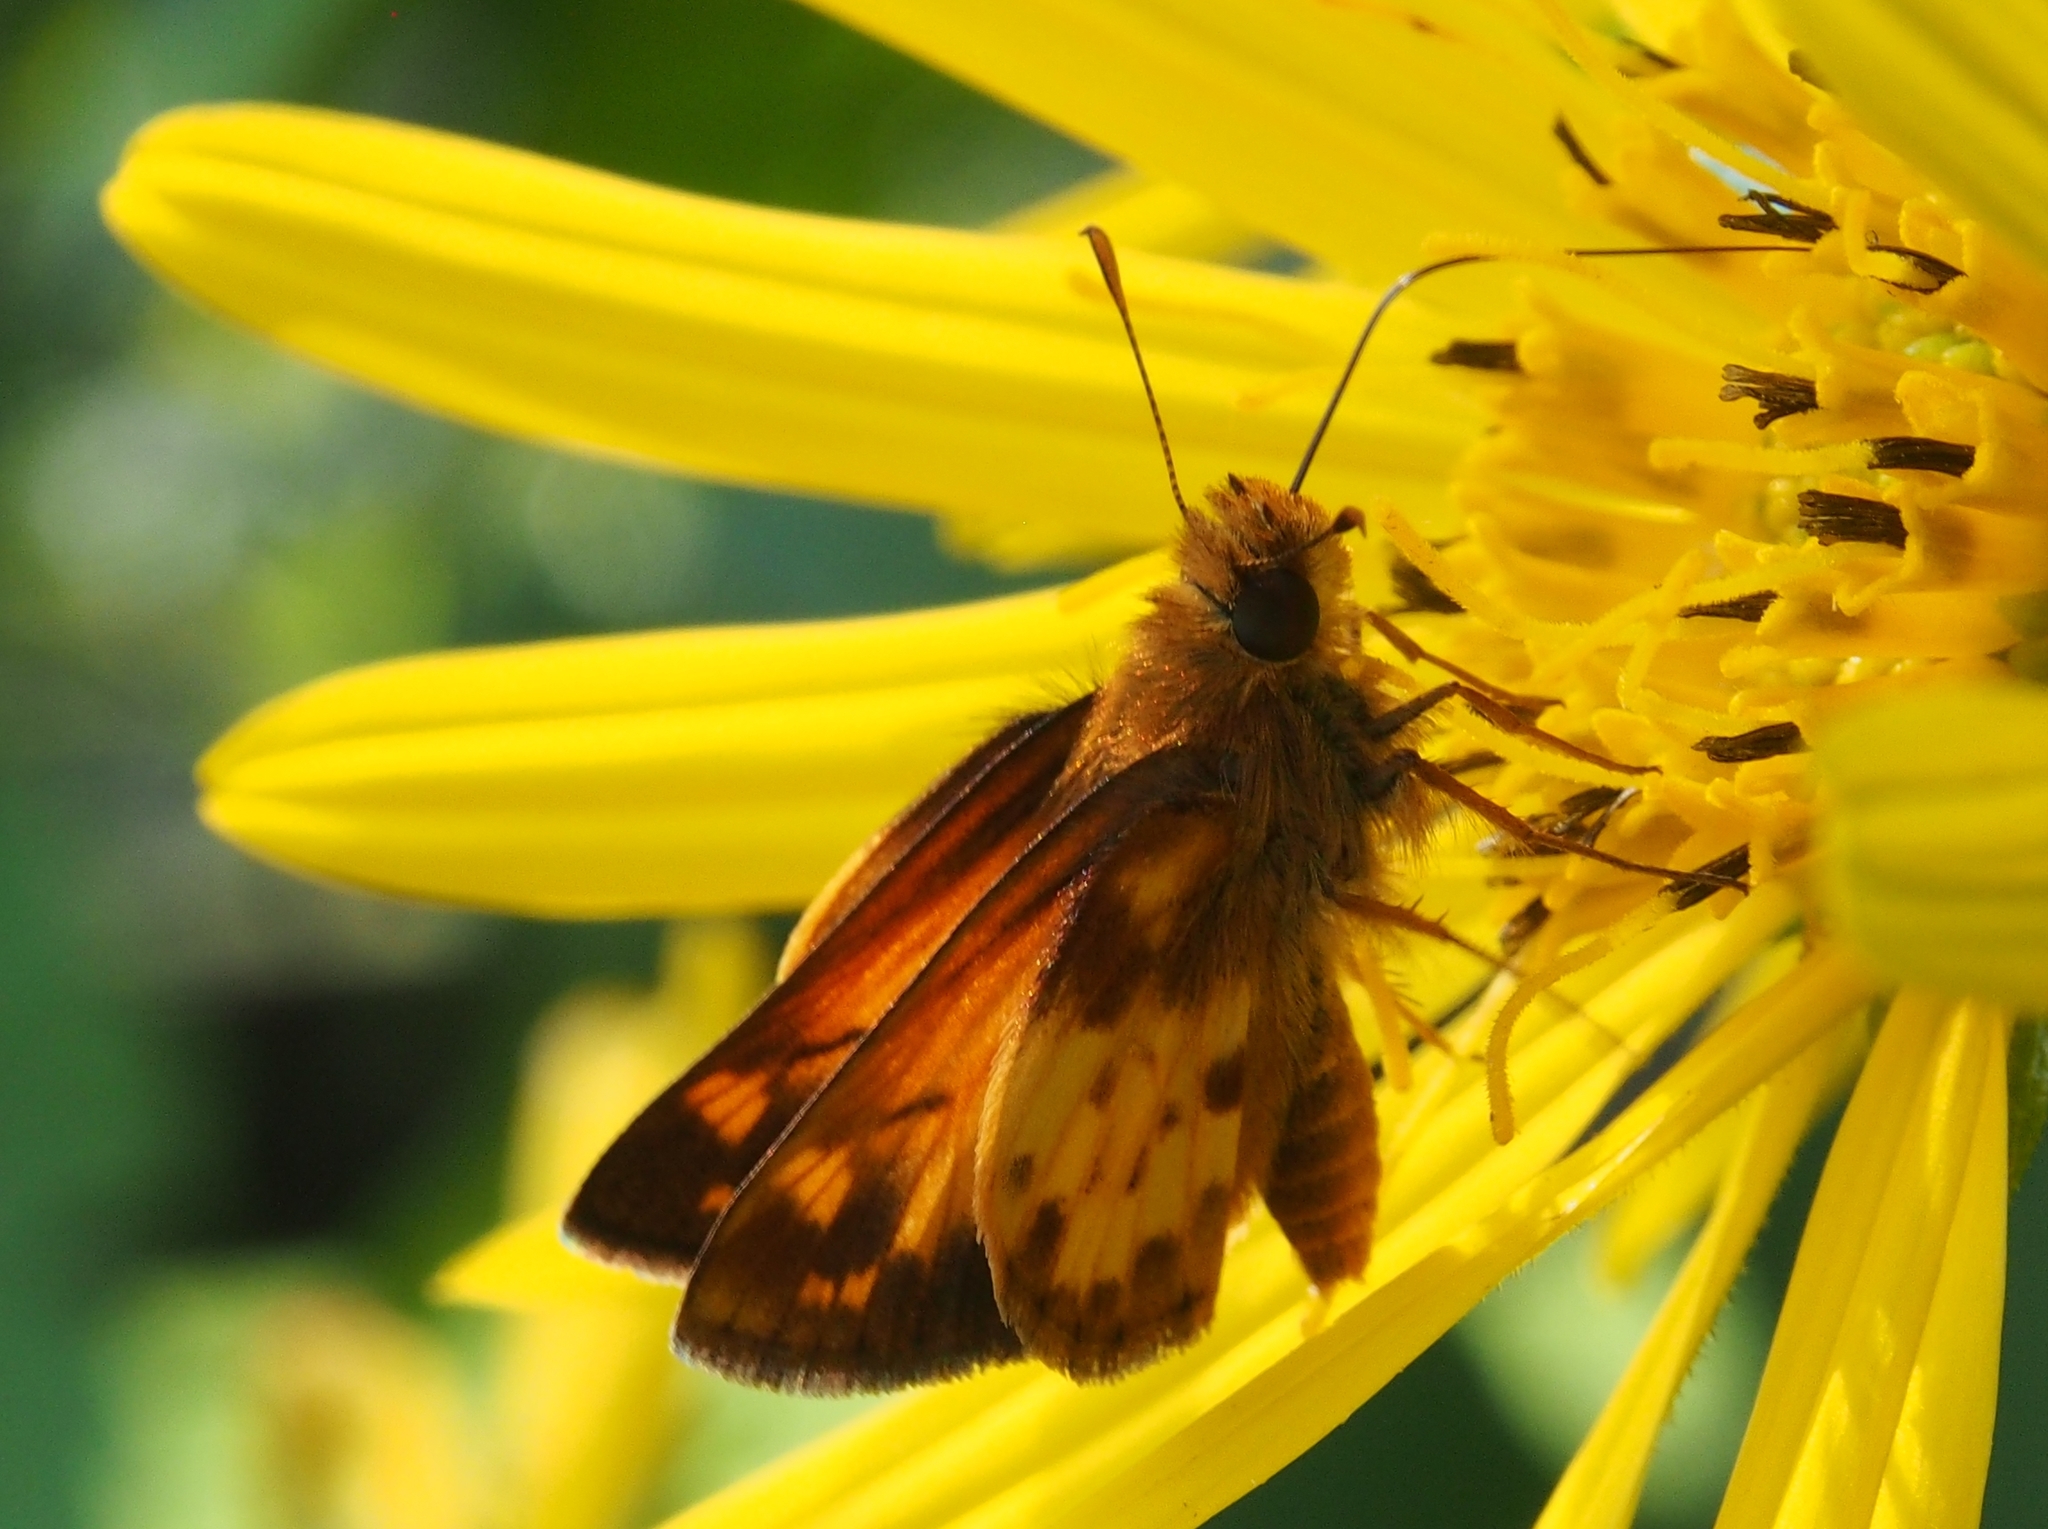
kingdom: Animalia
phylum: Arthropoda
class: Insecta
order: Lepidoptera
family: Hesperiidae
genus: Lon
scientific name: Lon zabulon
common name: Zabulon skipper
